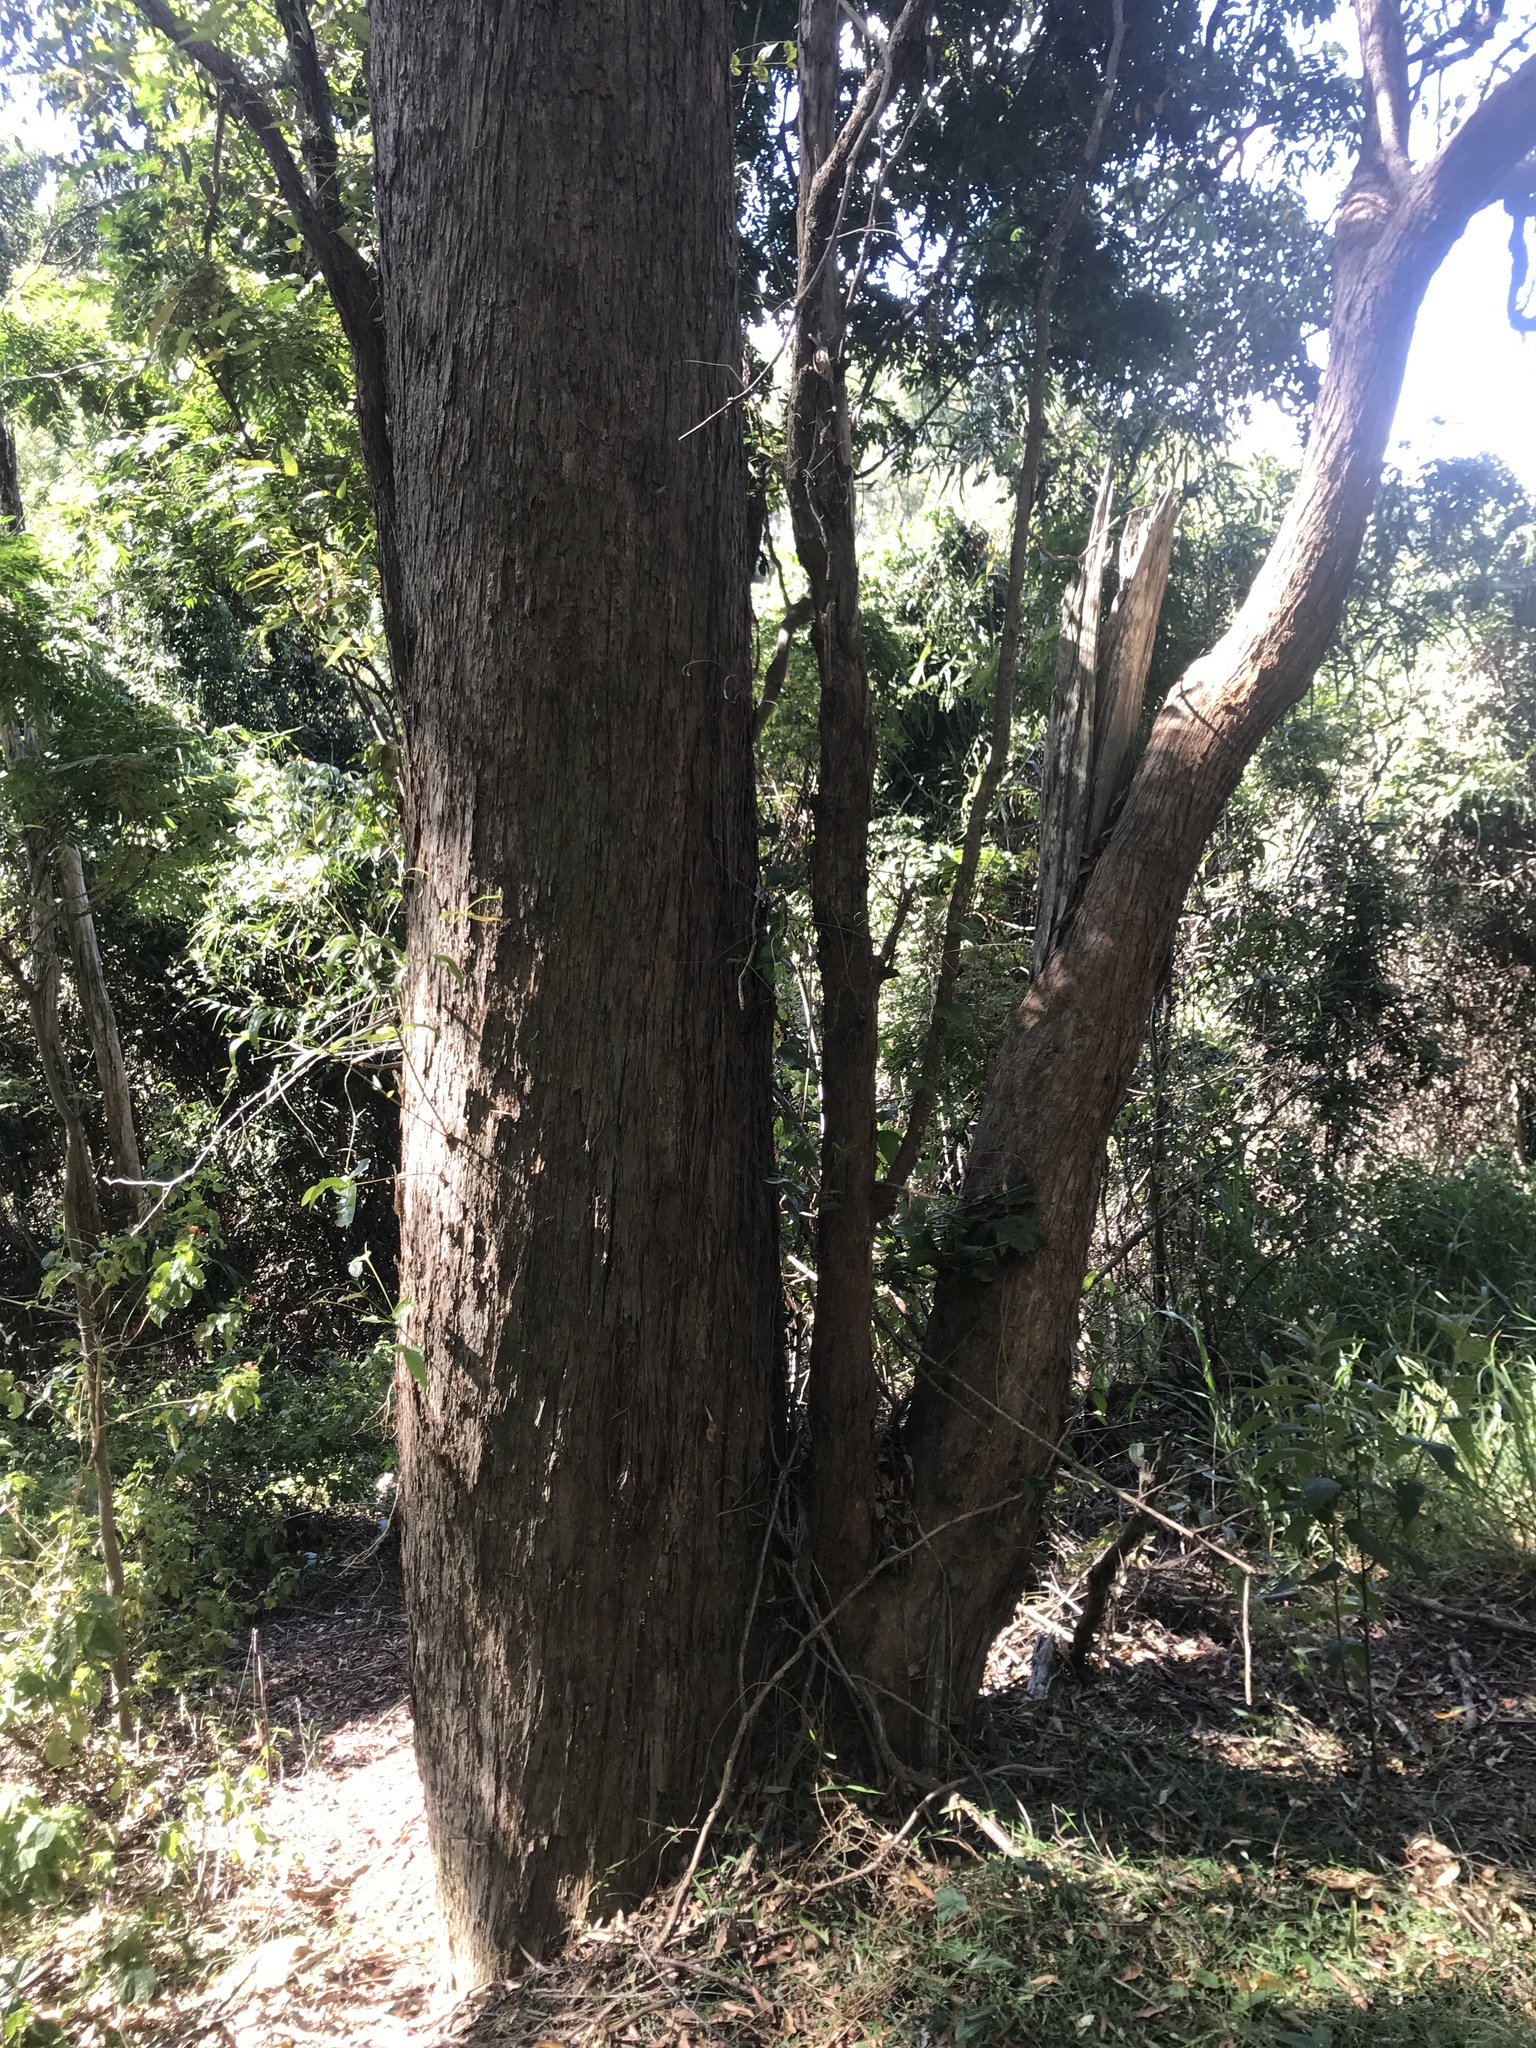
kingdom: Plantae
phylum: Tracheophyta
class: Magnoliopsida
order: Myrtales
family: Myrtaceae
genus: Eucalyptus
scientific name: Eucalyptus microcorys
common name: Tallowwood
